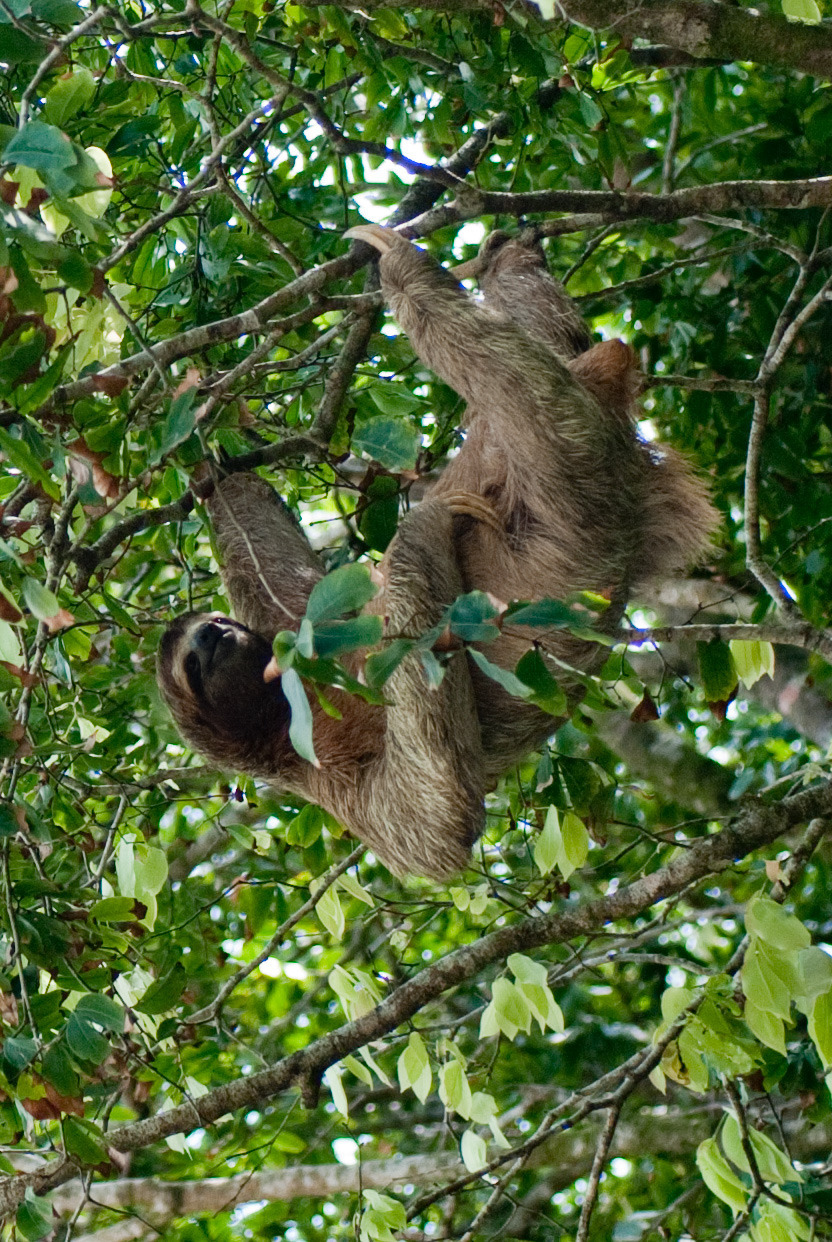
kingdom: Animalia
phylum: Chordata
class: Mammalia
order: Pilosa
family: Bradypodidae
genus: Bradypus
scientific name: Bradypus variegatus
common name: Brown-throated three-toed sloth
